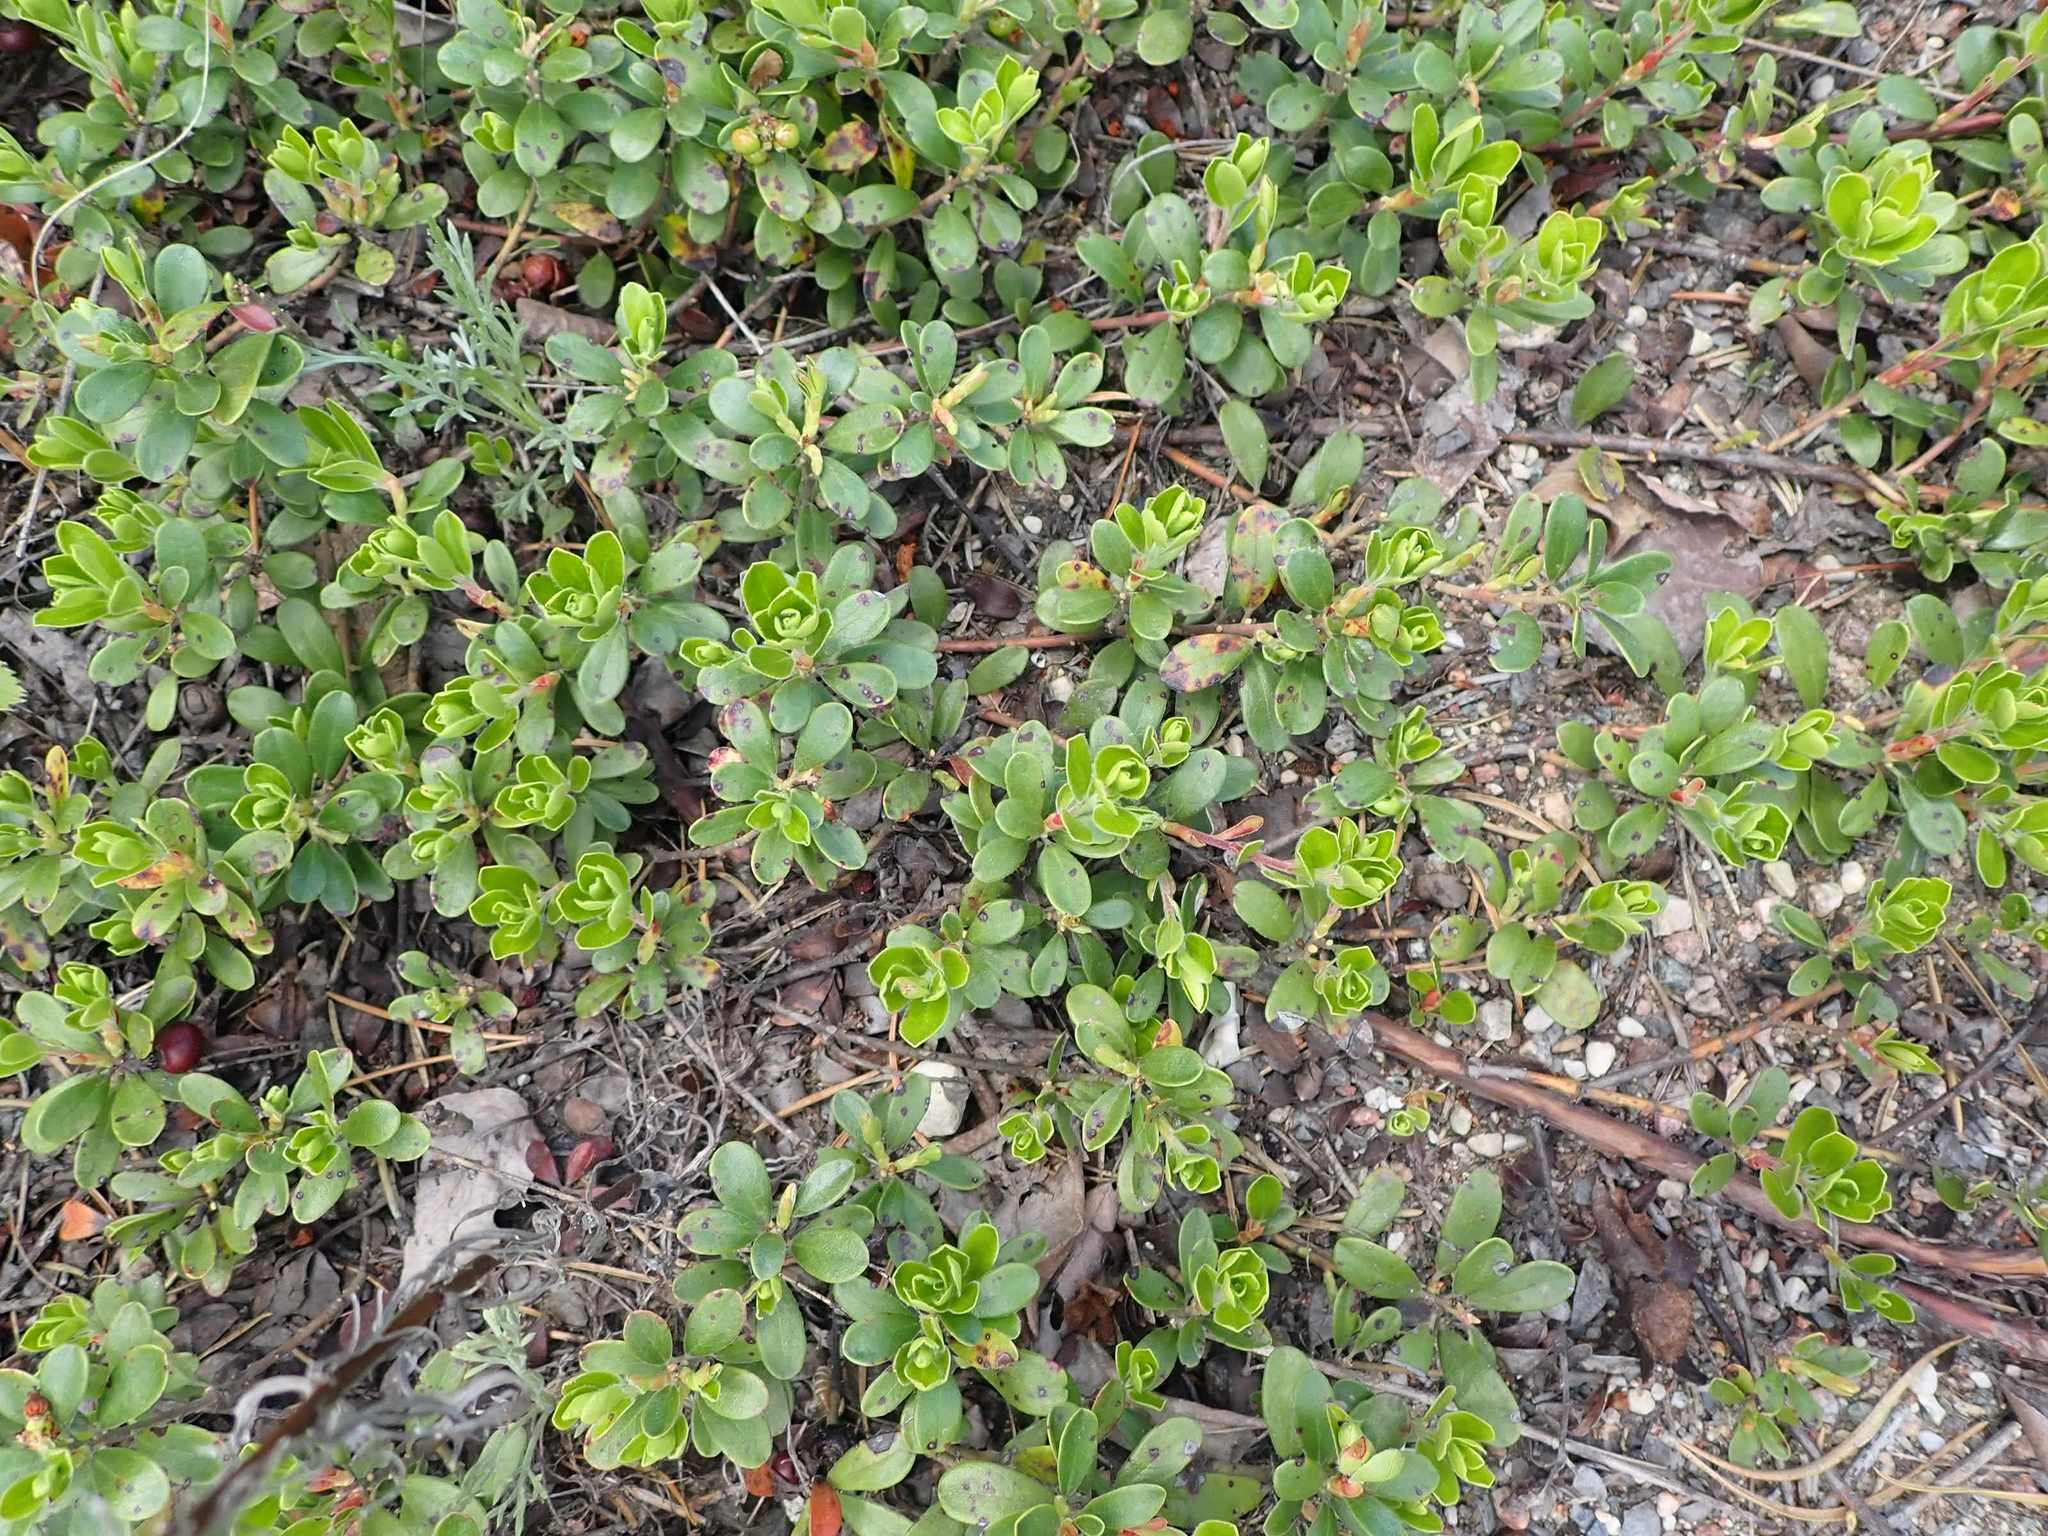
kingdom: Plantae
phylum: Tracheophyta
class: Magnoliopsida
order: Ericales
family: Ericaceae
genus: Arctostaphylos
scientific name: Arctostaphylos uva-ursi
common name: Bearberry
